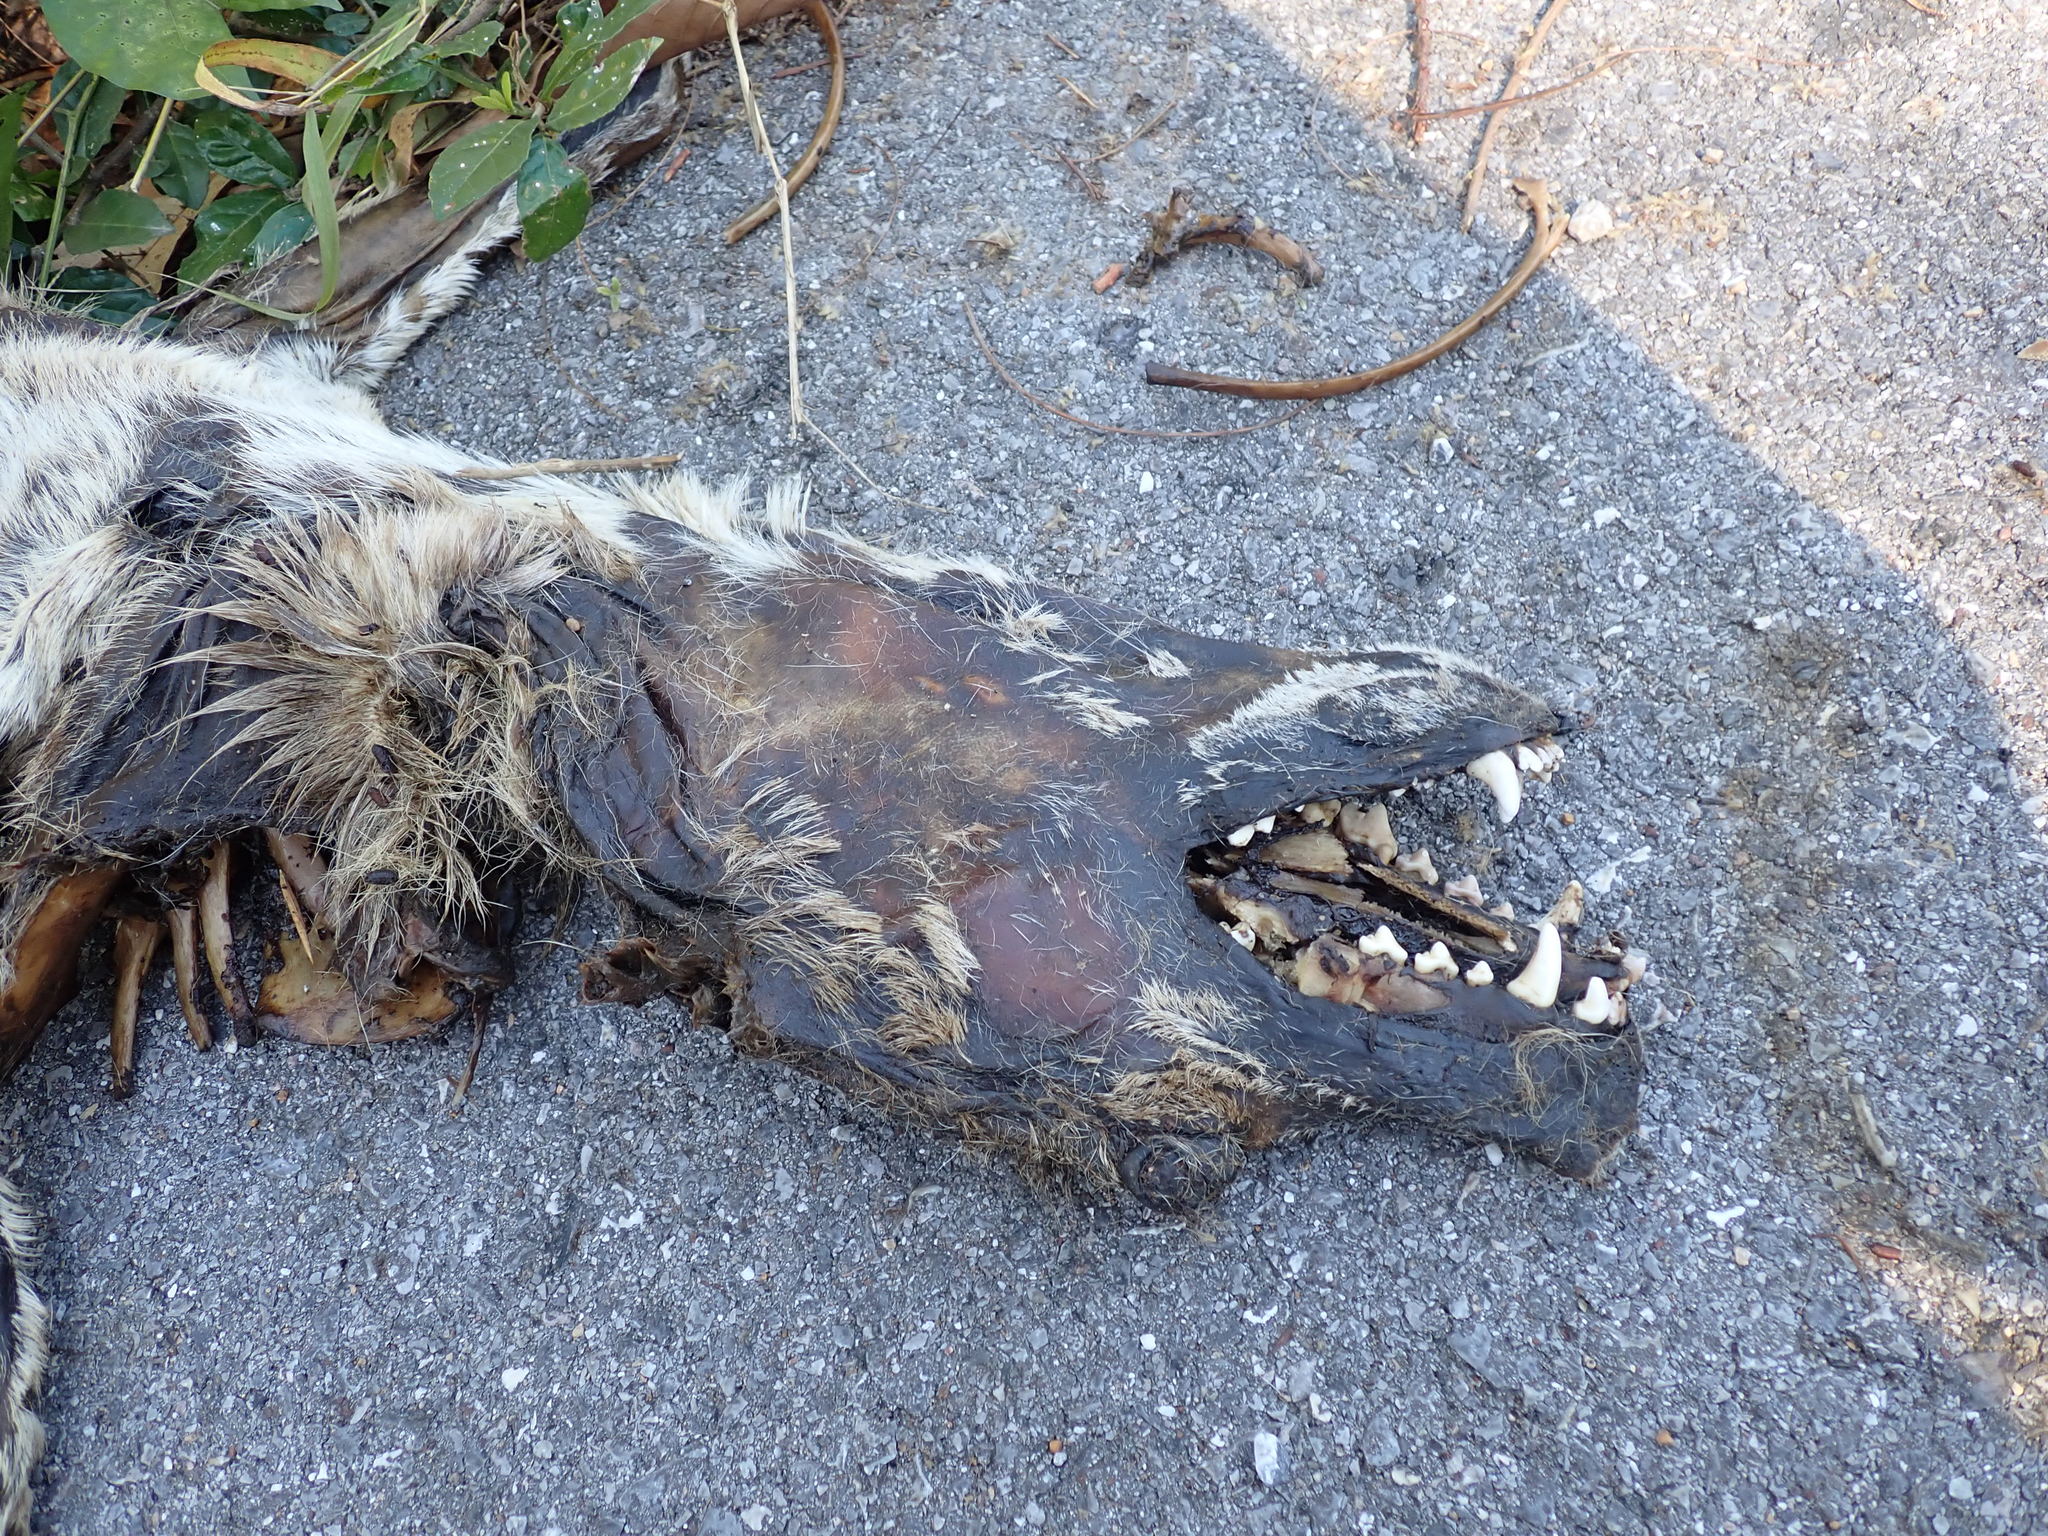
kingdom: Animalia
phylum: Chordata
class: Mammalia
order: Carnivora
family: Canidae
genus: Canis
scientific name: Canis lupus
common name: Gray wolf
